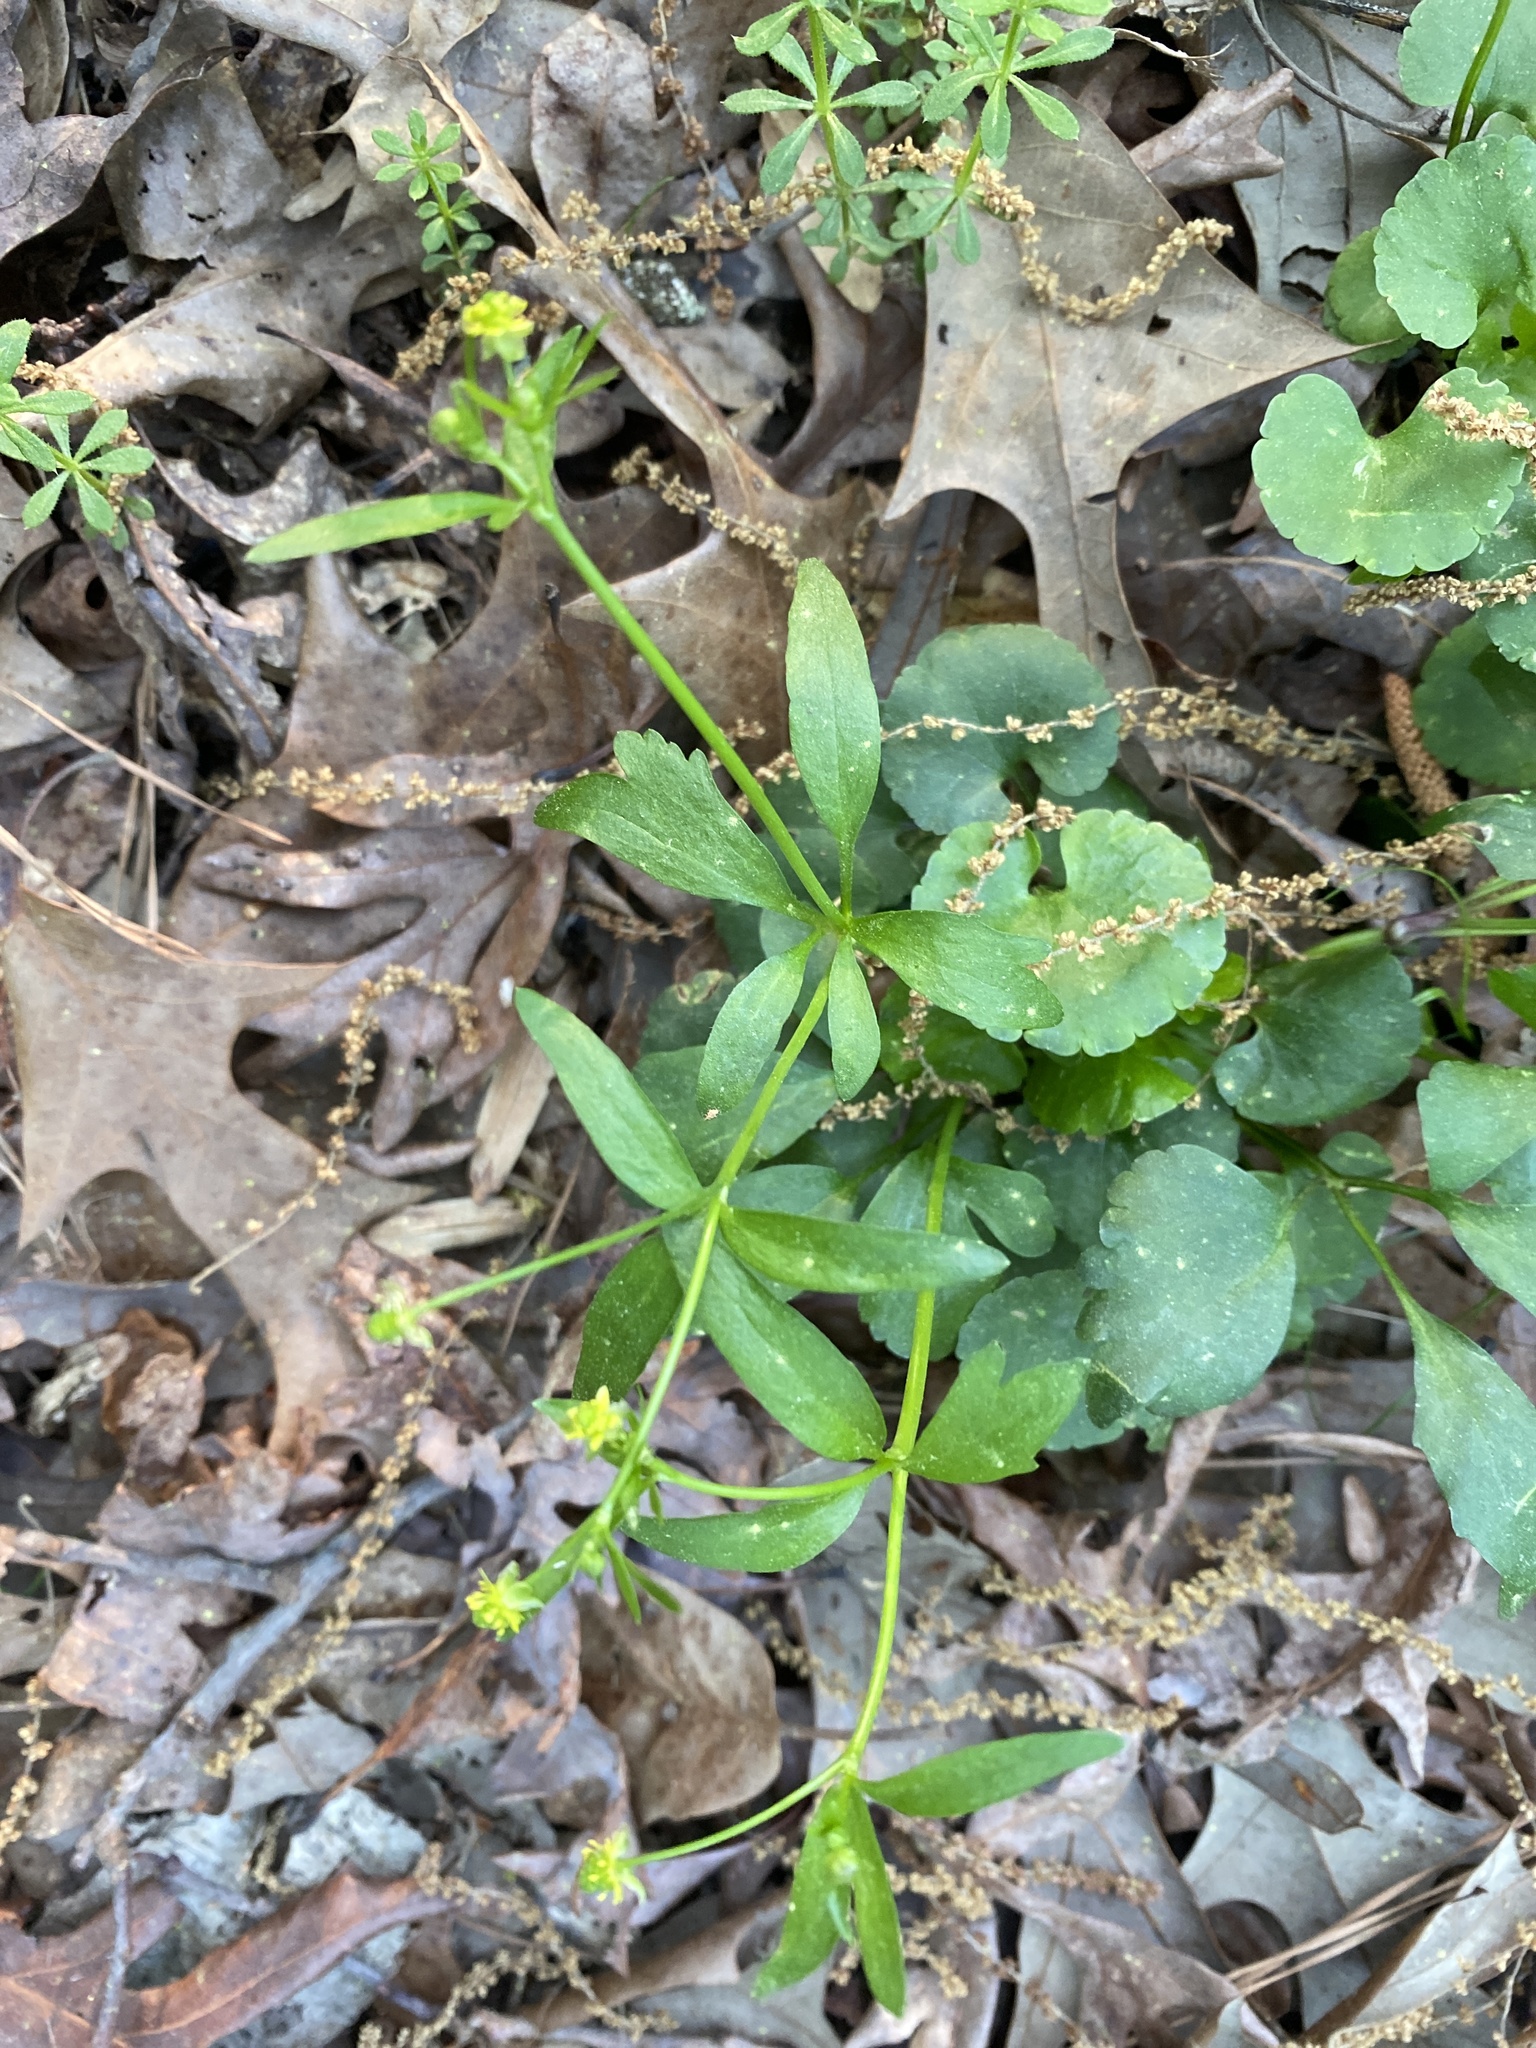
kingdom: Plantae
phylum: Tracheophyta
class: Magnoliopsida
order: Ranunculales
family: Ranunculaceae
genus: Ranunculus
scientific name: Ranunculus abortivus
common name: Early wood buttercup
